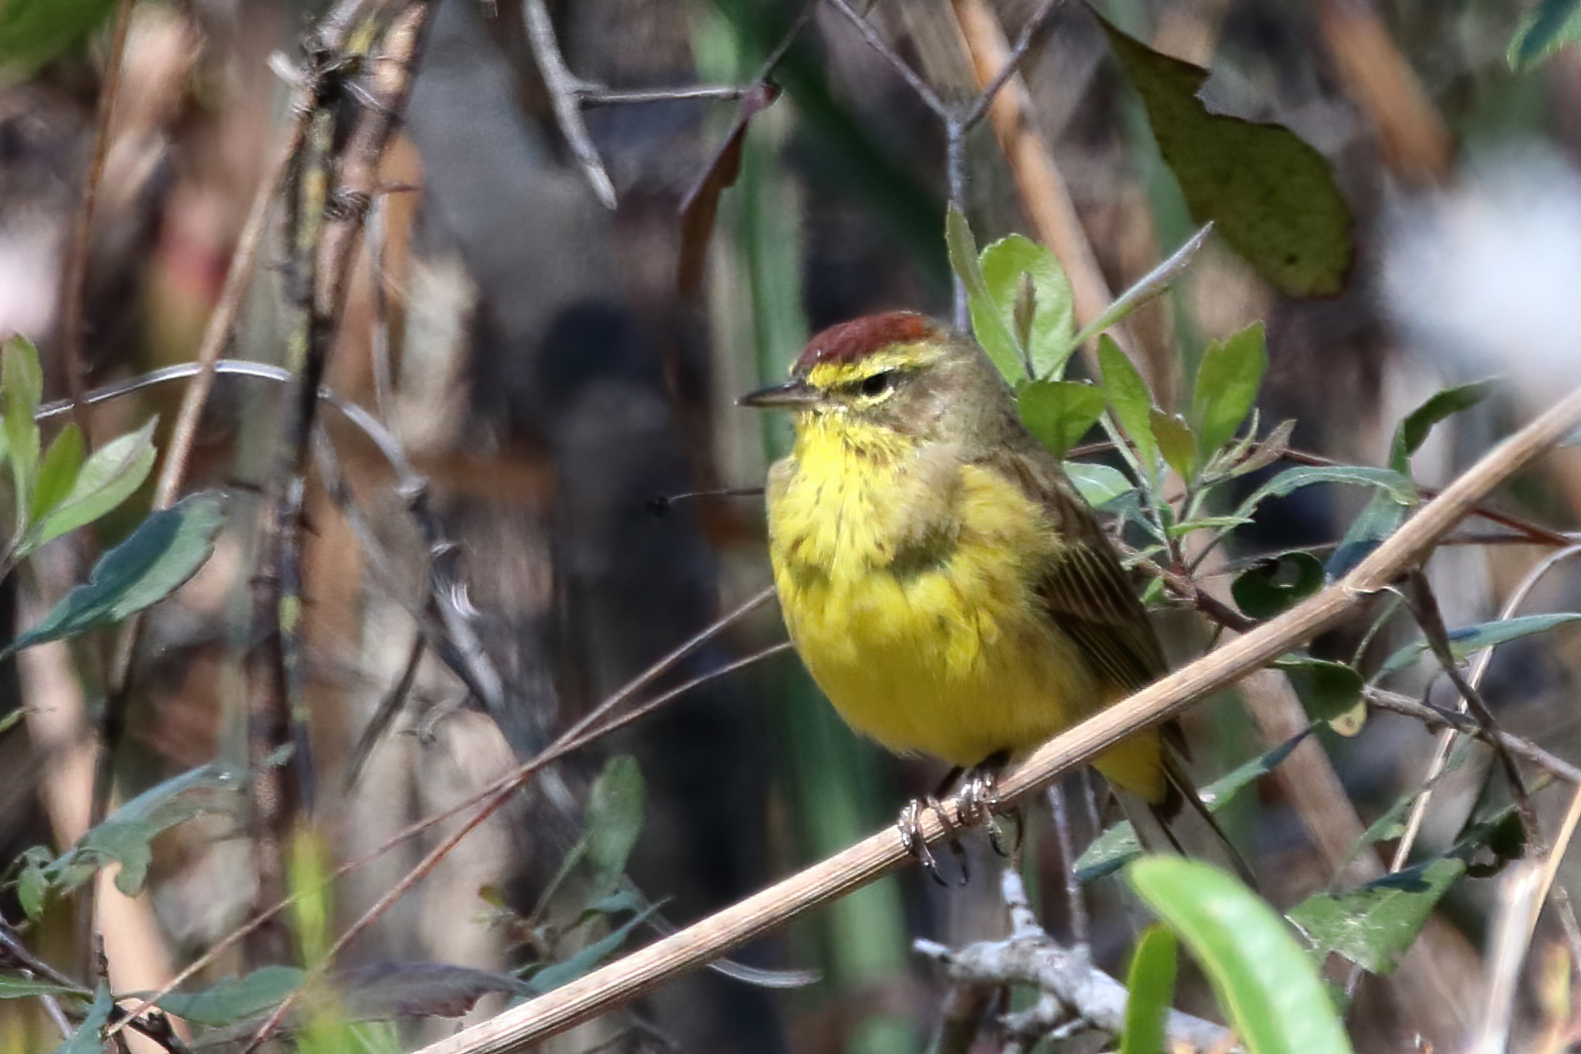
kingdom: Animalia
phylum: Chordata
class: Aves
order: Passeriformes
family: Parulidae
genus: Setophaga
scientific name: Setophaga palmarum
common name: Palm warbler
